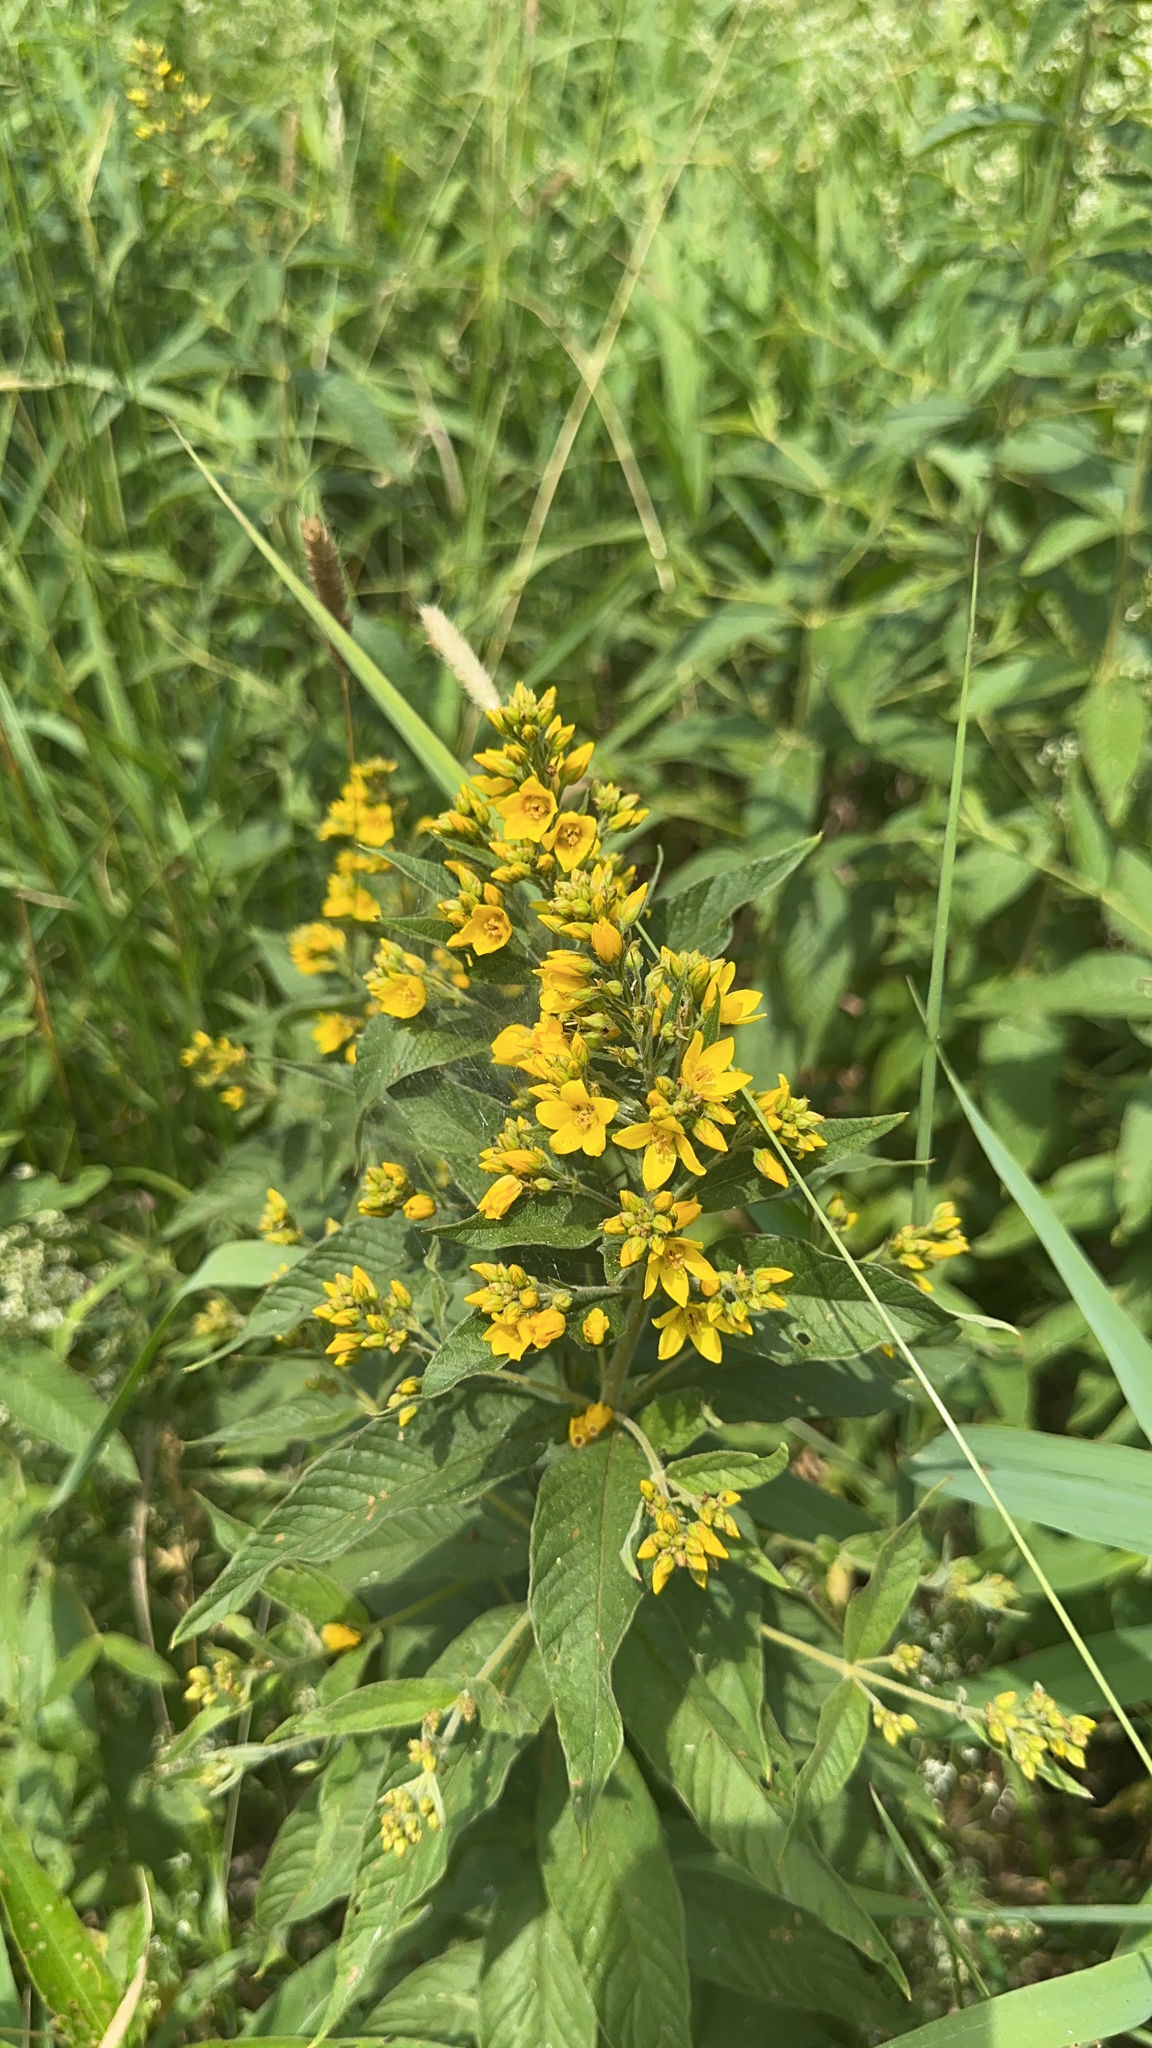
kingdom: Plantae
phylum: Tracheophyta
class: Magnoliopsida
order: Ericales
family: Primulaceae
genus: Lysimachia
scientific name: Lysimachia vulgaris
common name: Yellow loosestrife
